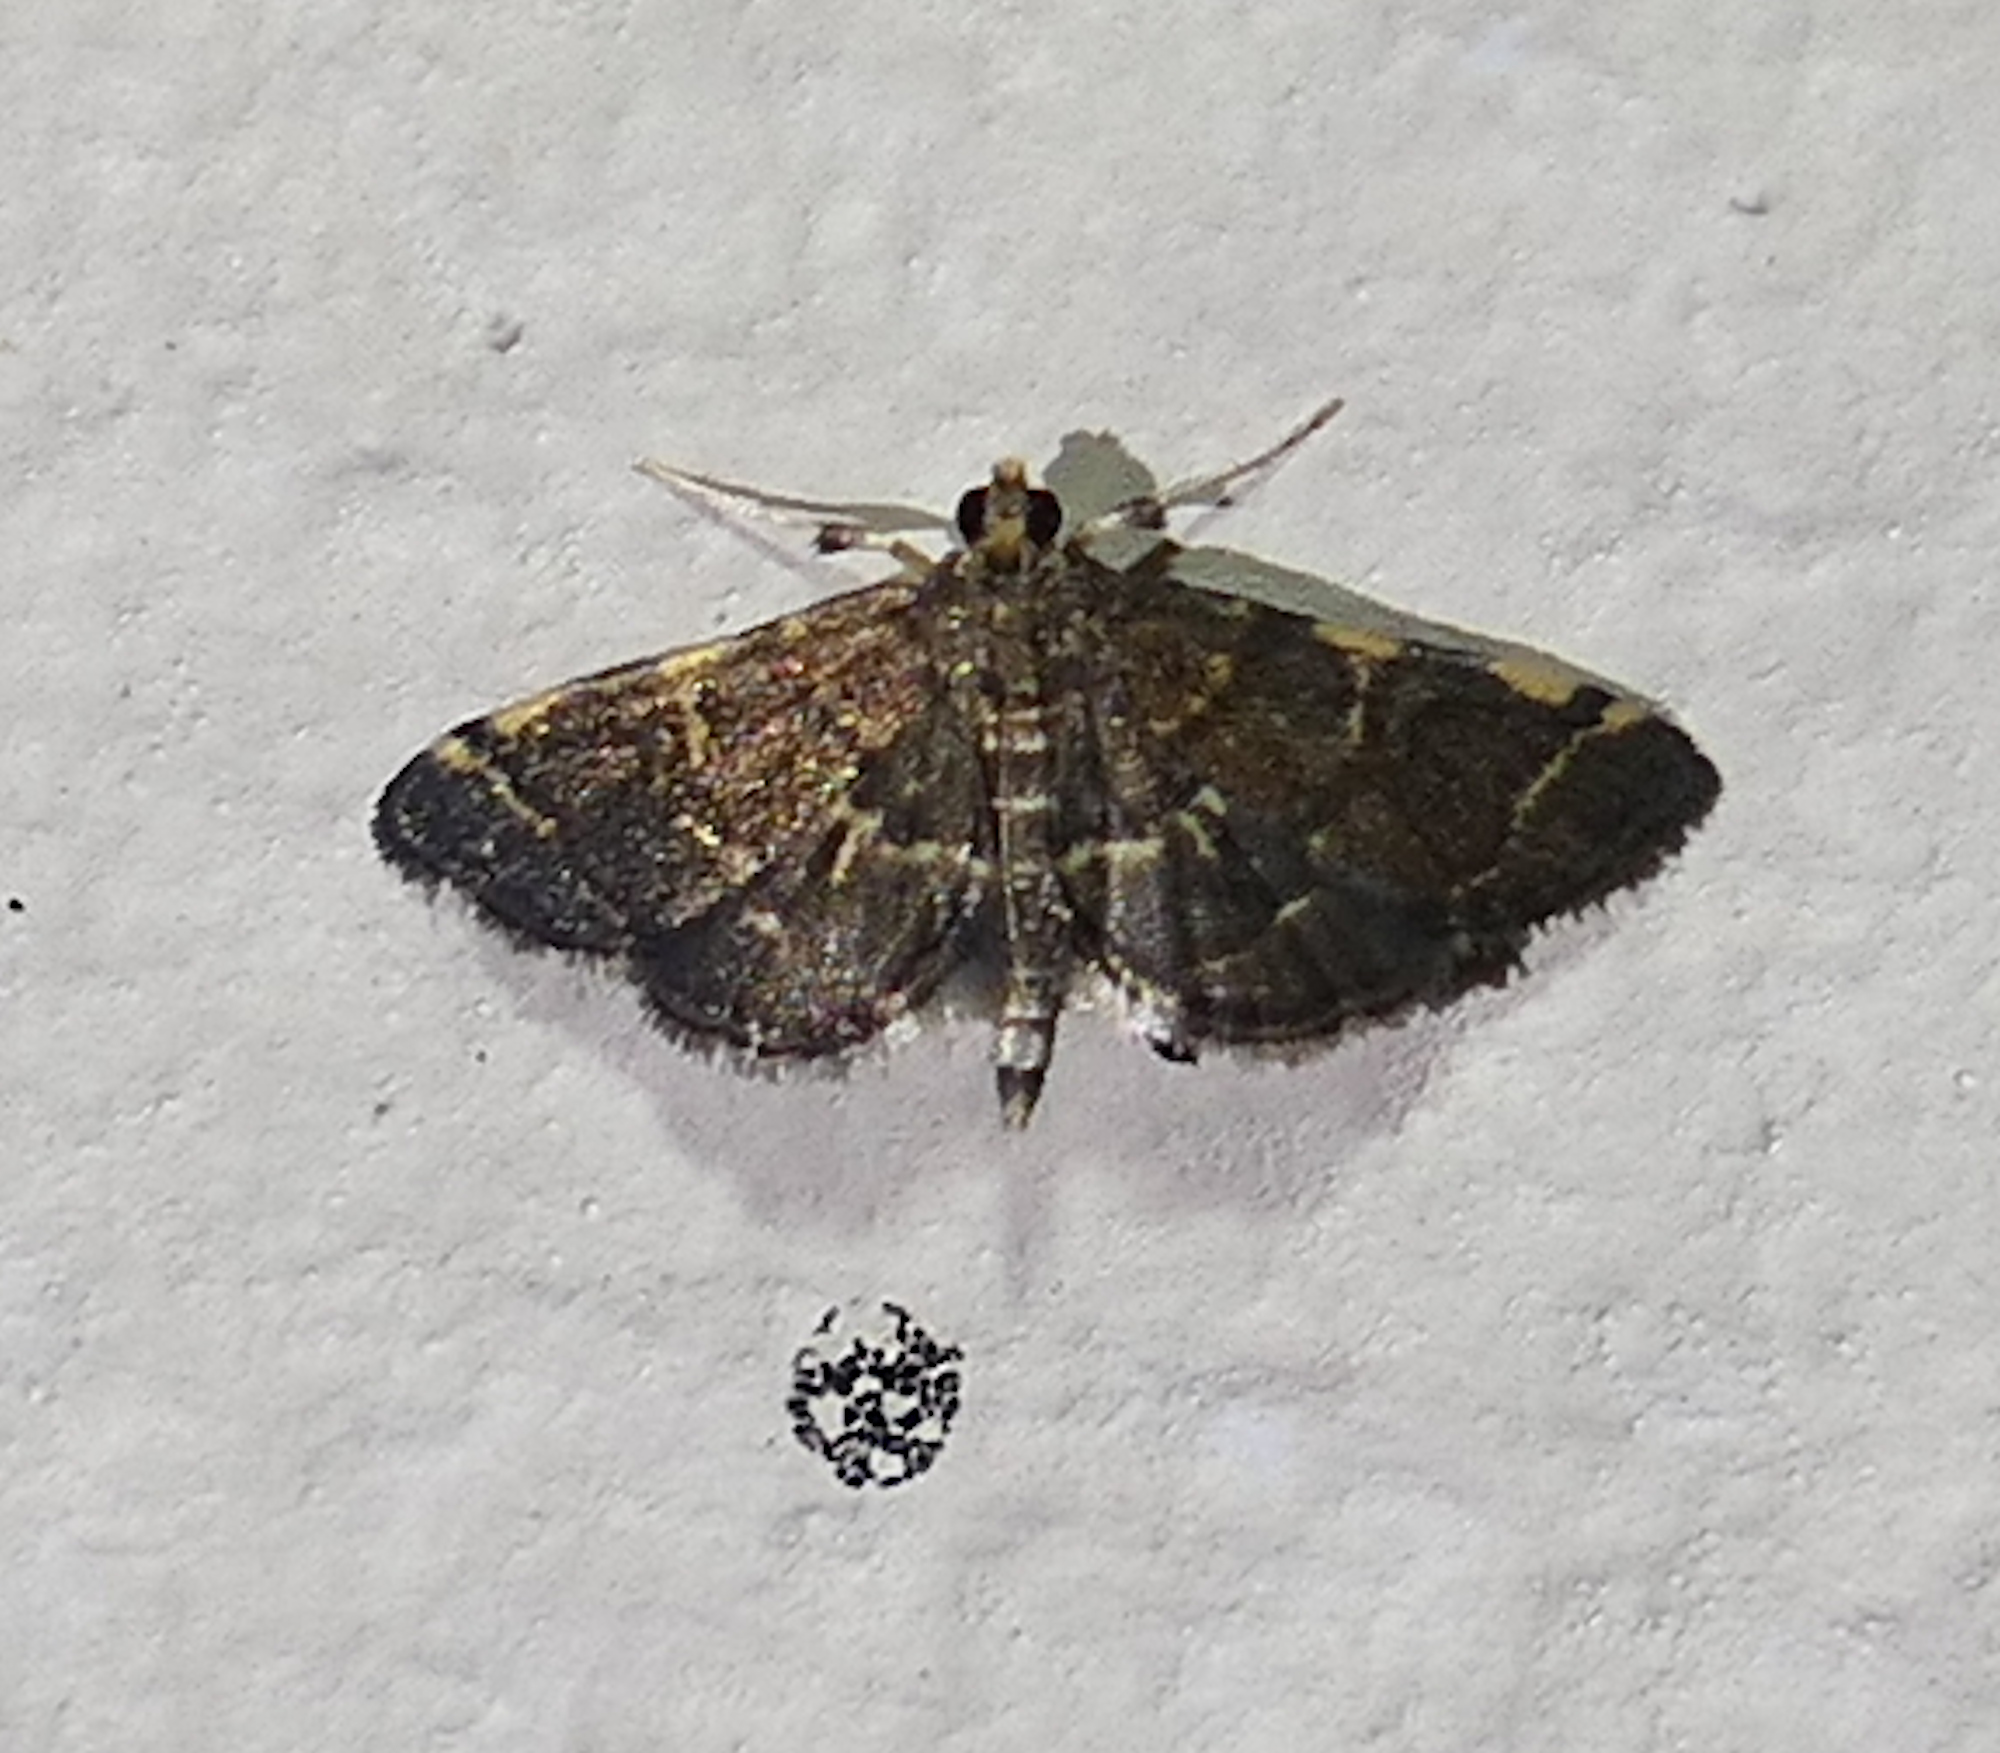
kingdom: Animalia
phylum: Arthropoda
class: Insecta
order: Lepidoptera
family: Crambidae
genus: Anageshna
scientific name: Anageshna primordialis
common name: Yellow-spotted webworm moth
